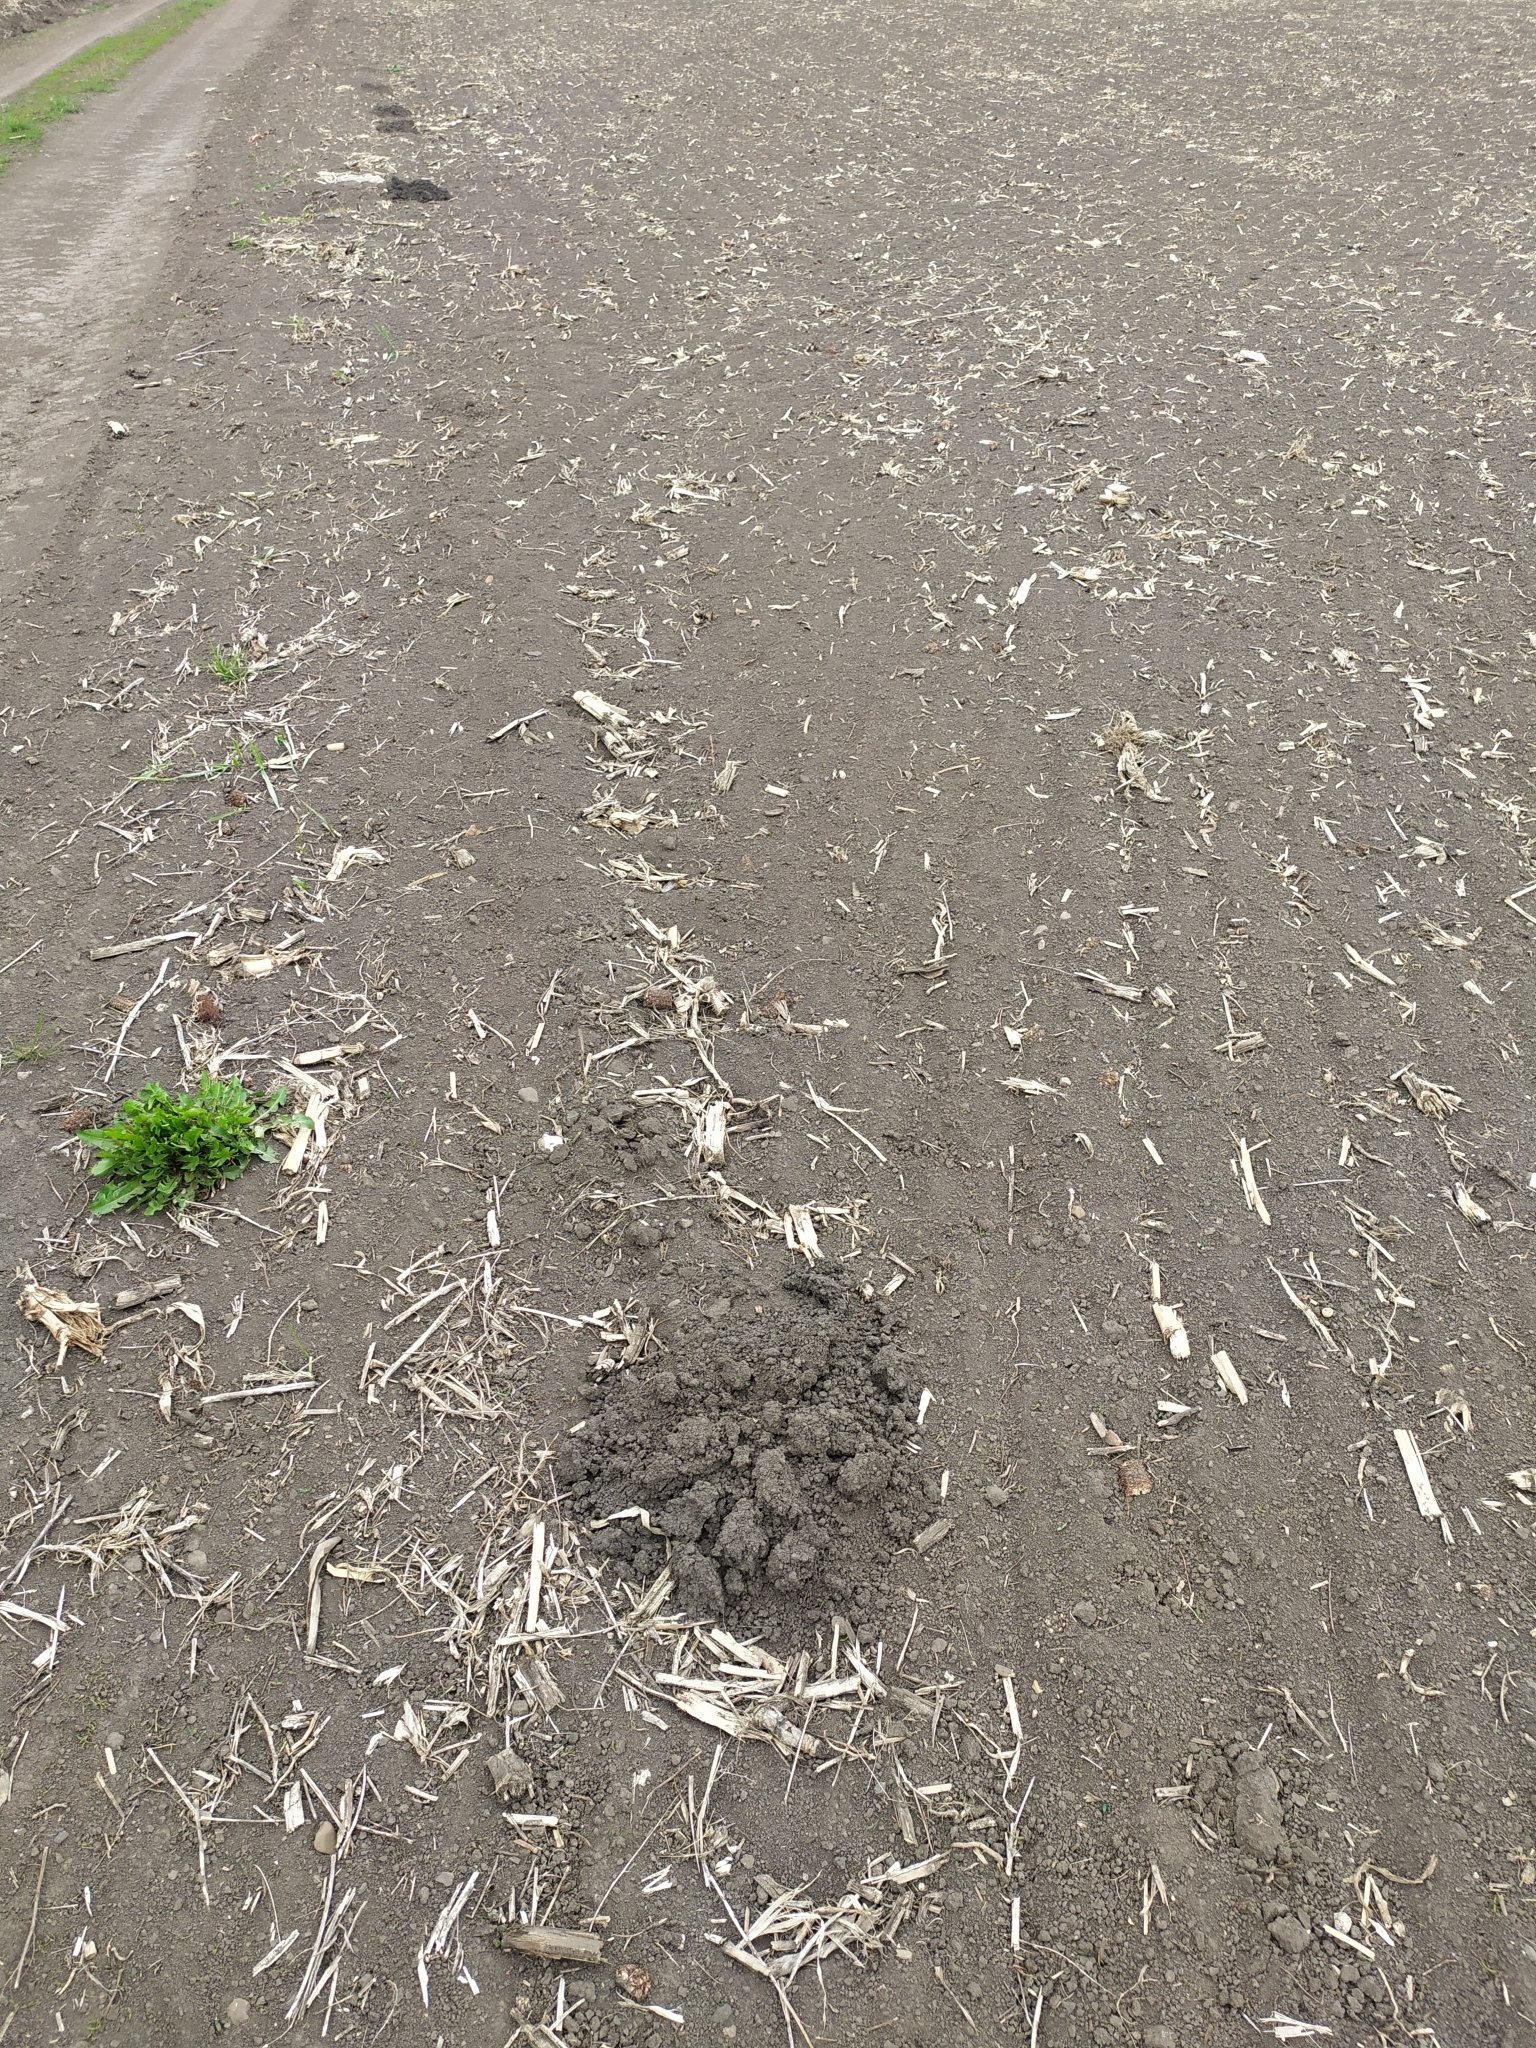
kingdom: Animalia
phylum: Chordata
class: Mammalia
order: Soricomorpha
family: Talpidae
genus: Talpa
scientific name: Talpa europaea
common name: European mole
